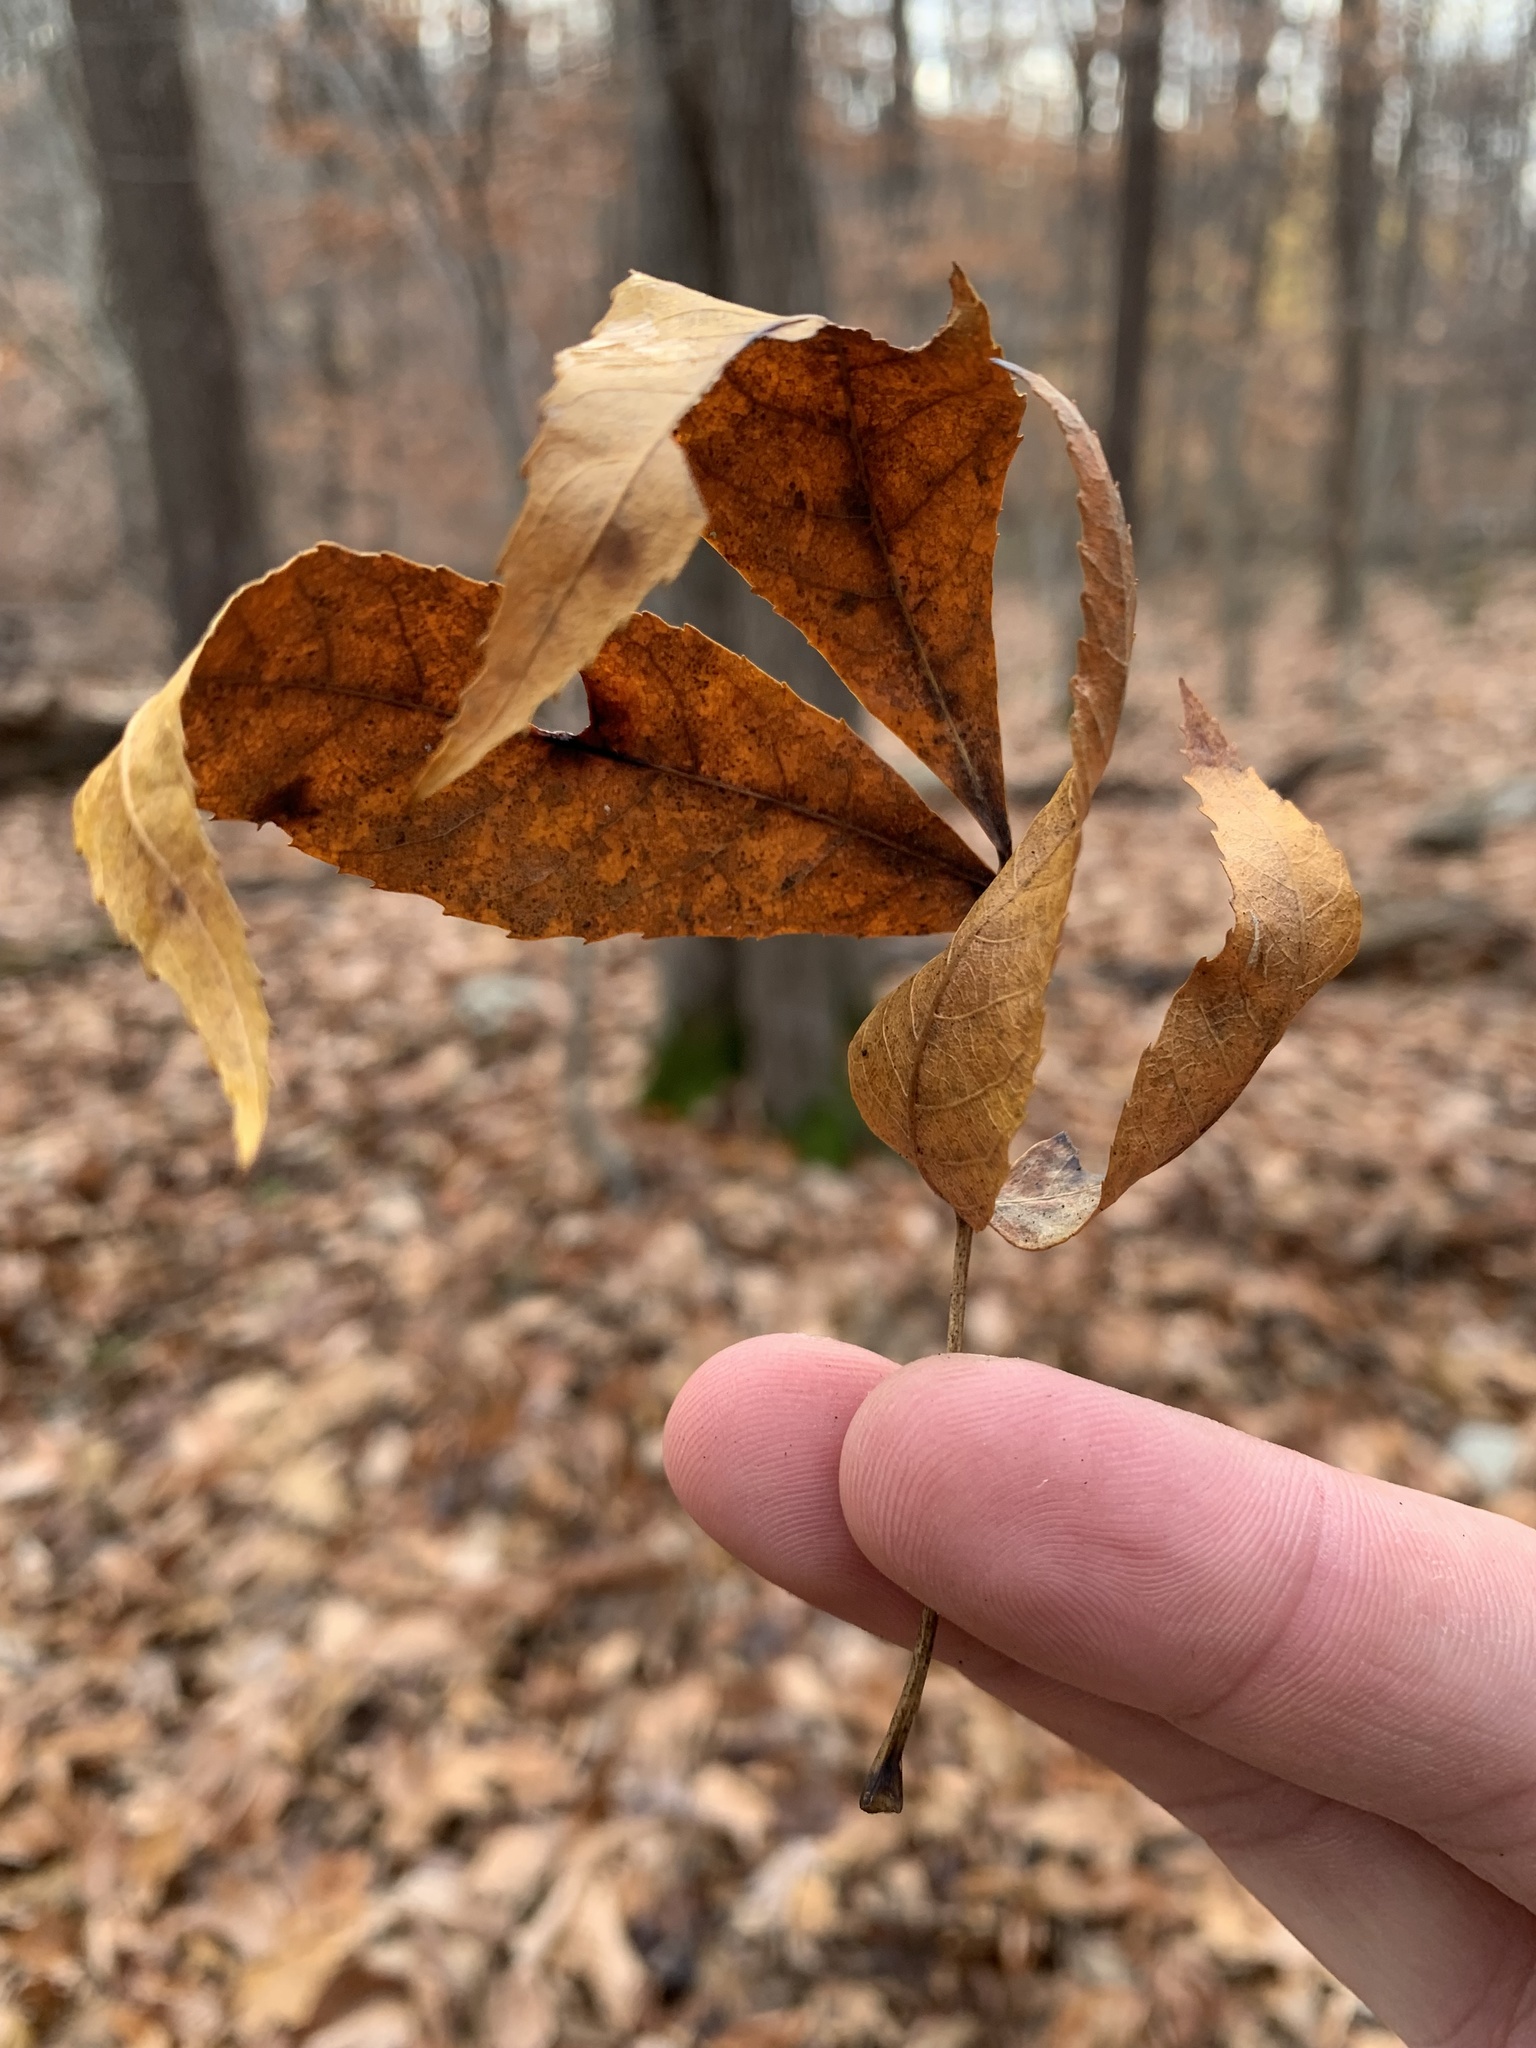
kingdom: Plantae
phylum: Tracheophyta
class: Magnoliopsida
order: Fagales
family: Juglandaceae
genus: Carya
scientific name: Carya ovalis
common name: False shagbark
